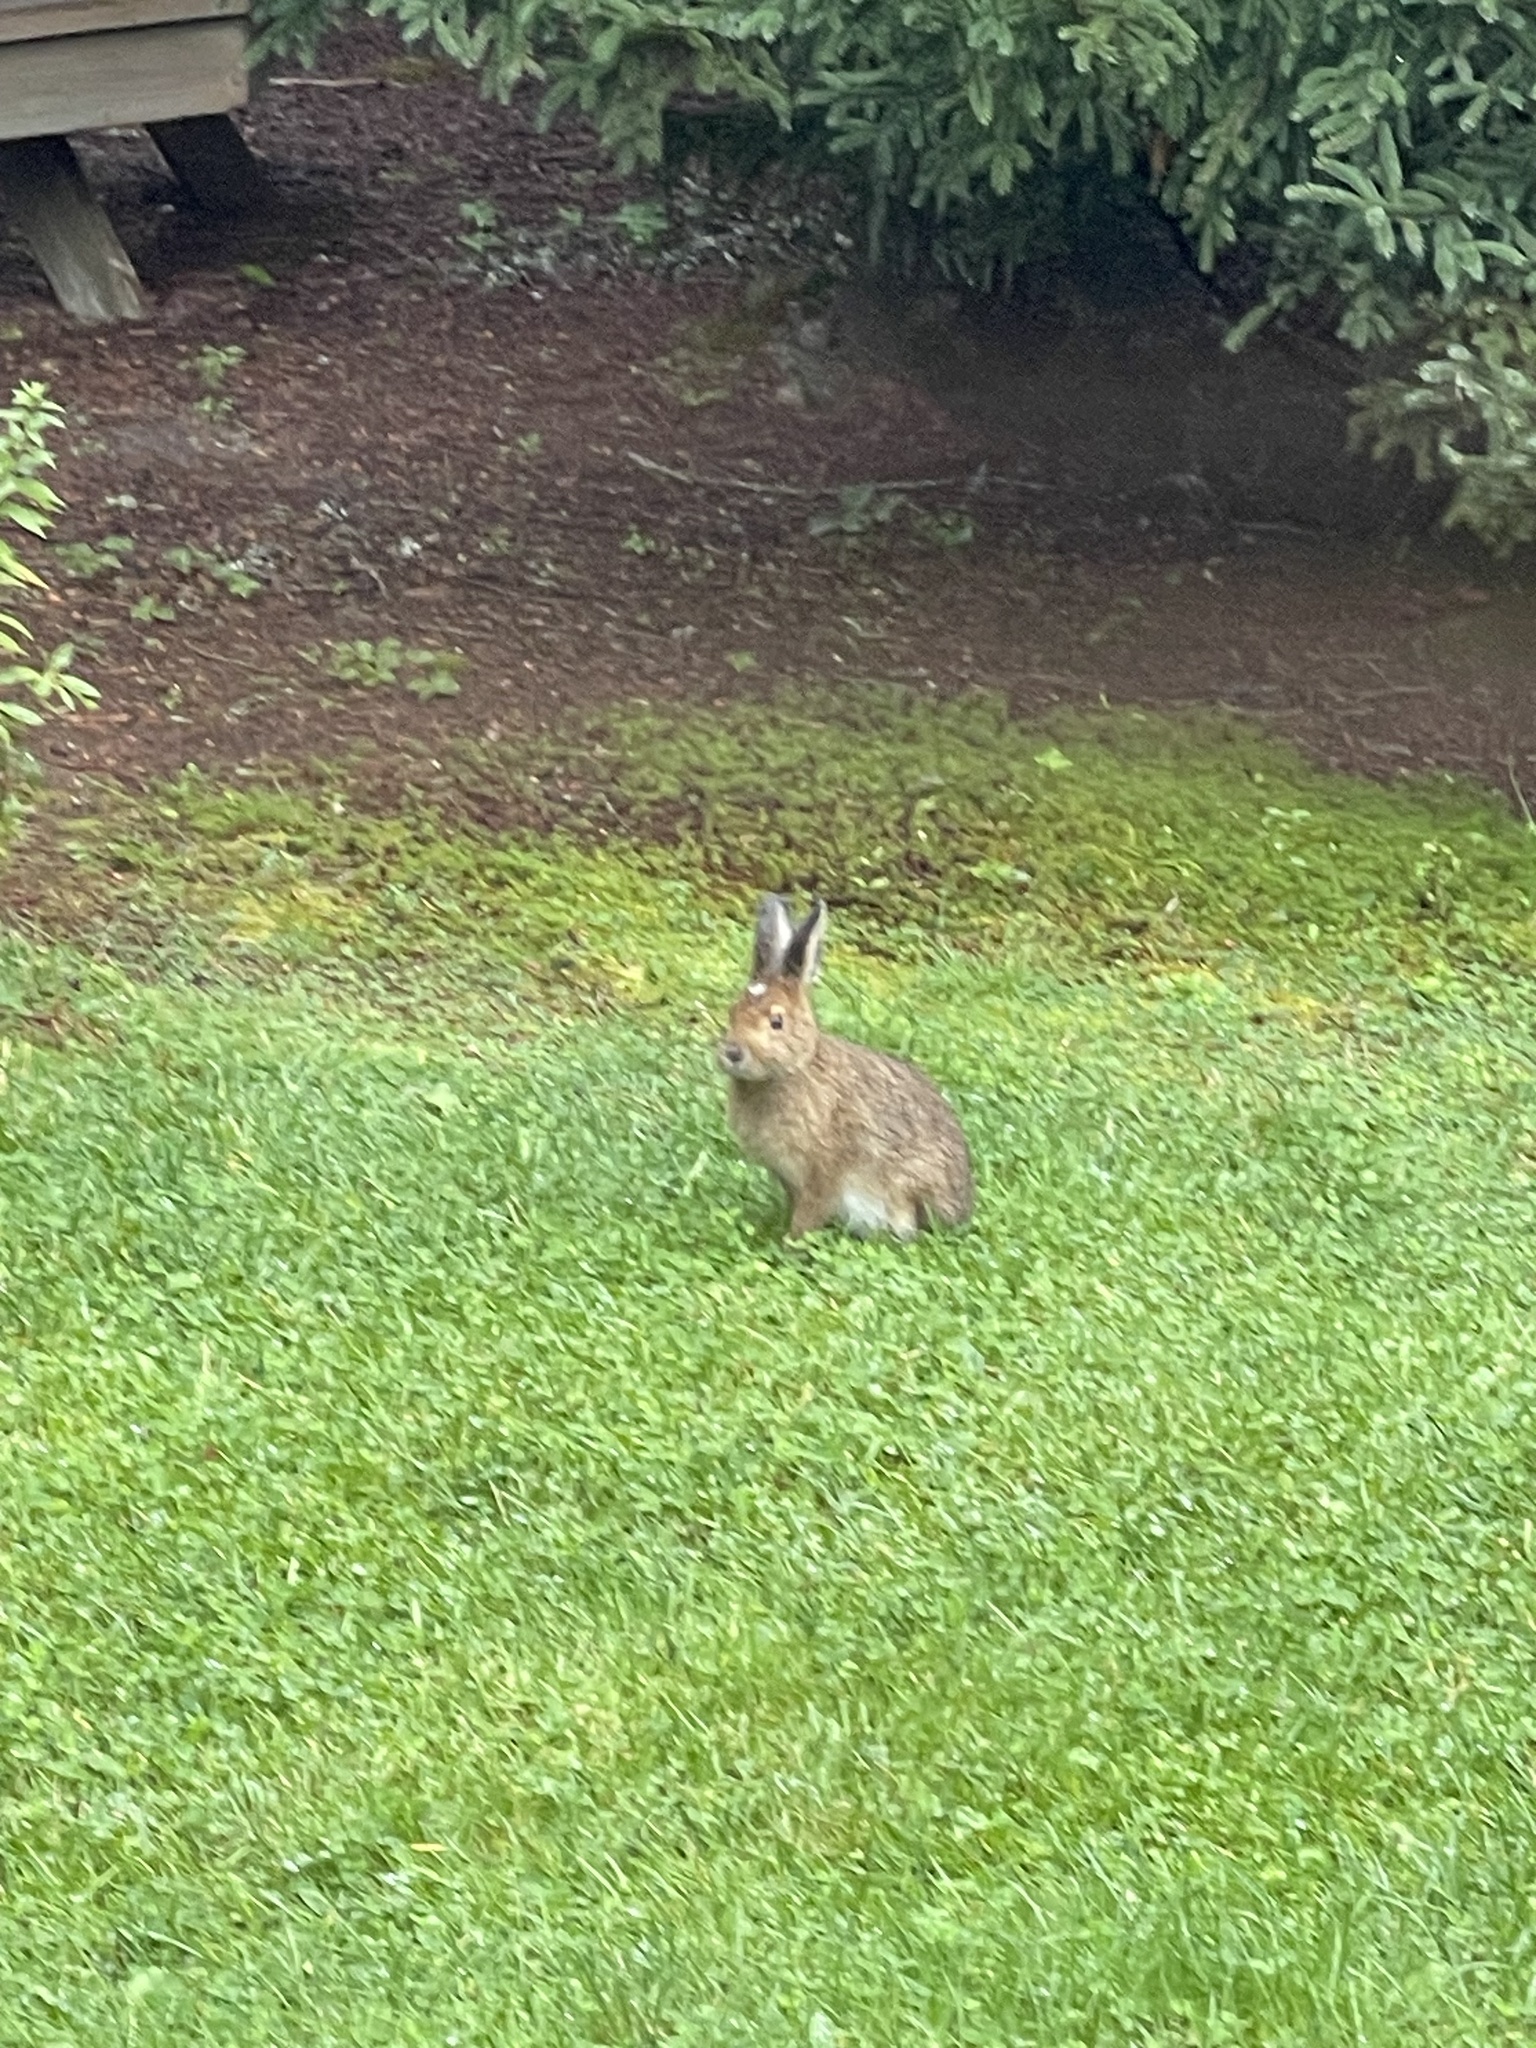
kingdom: Animalia
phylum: Chordata
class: Mammalia
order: Lagomorpha
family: Leporidae
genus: Lepus
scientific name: Lepus americanus
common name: Snowshoe hare
